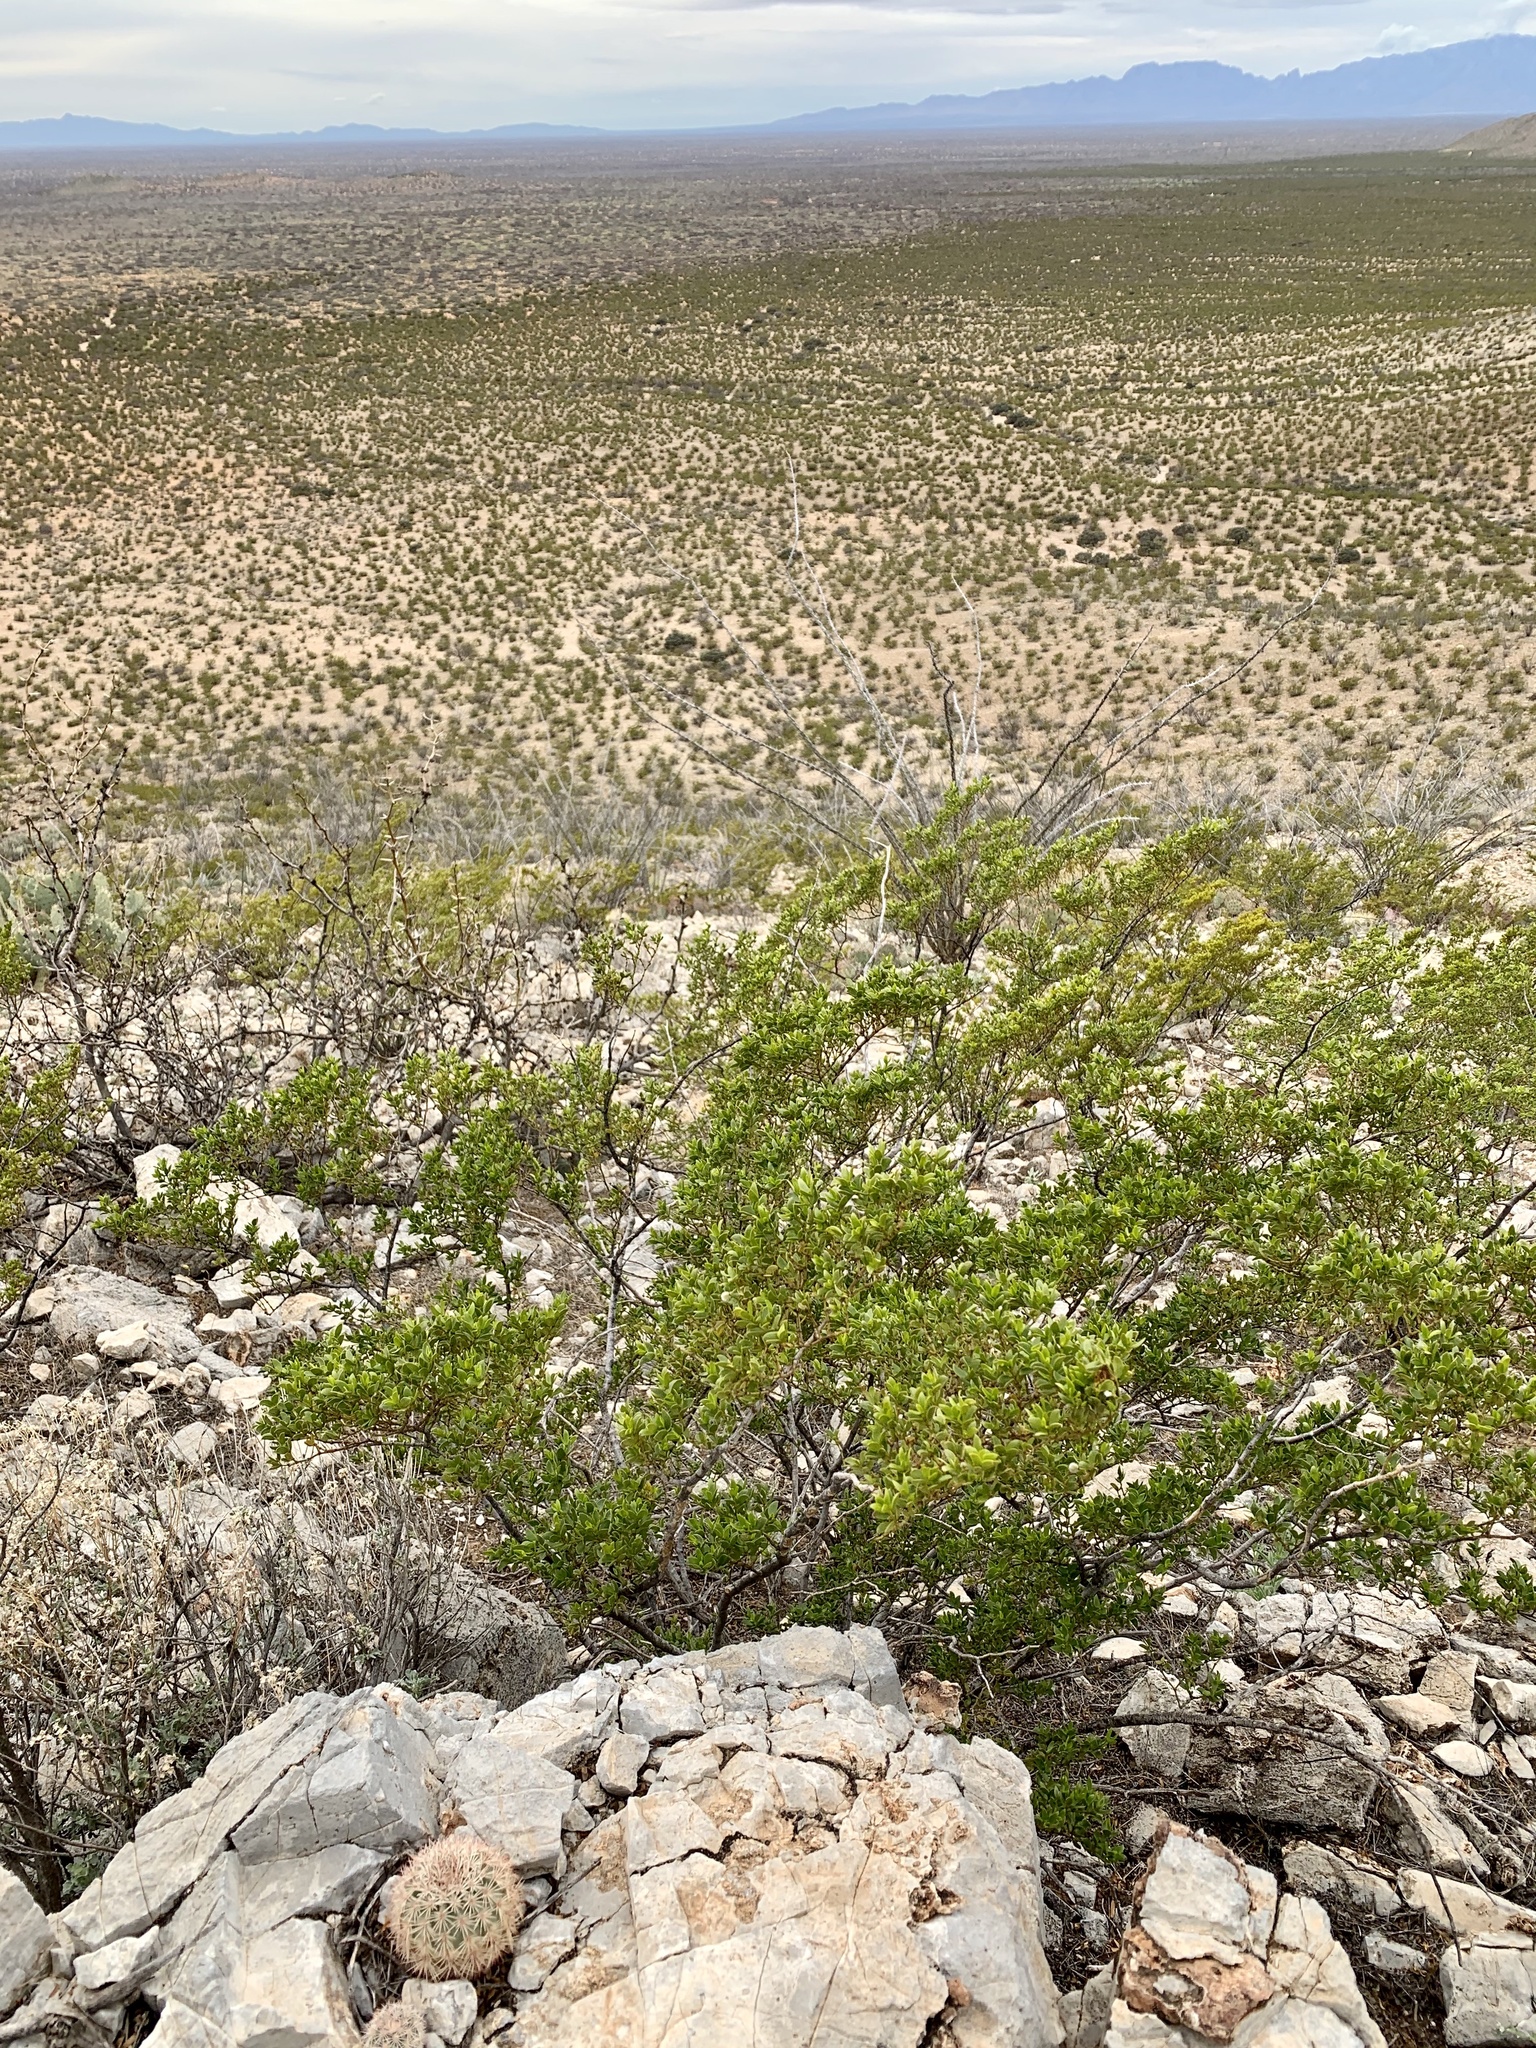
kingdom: Plantae
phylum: Tracheophyta
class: Magnoliopsida
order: Zygophyllales
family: Zygophyllaceae
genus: Larrea
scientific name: Larrea tridentata
